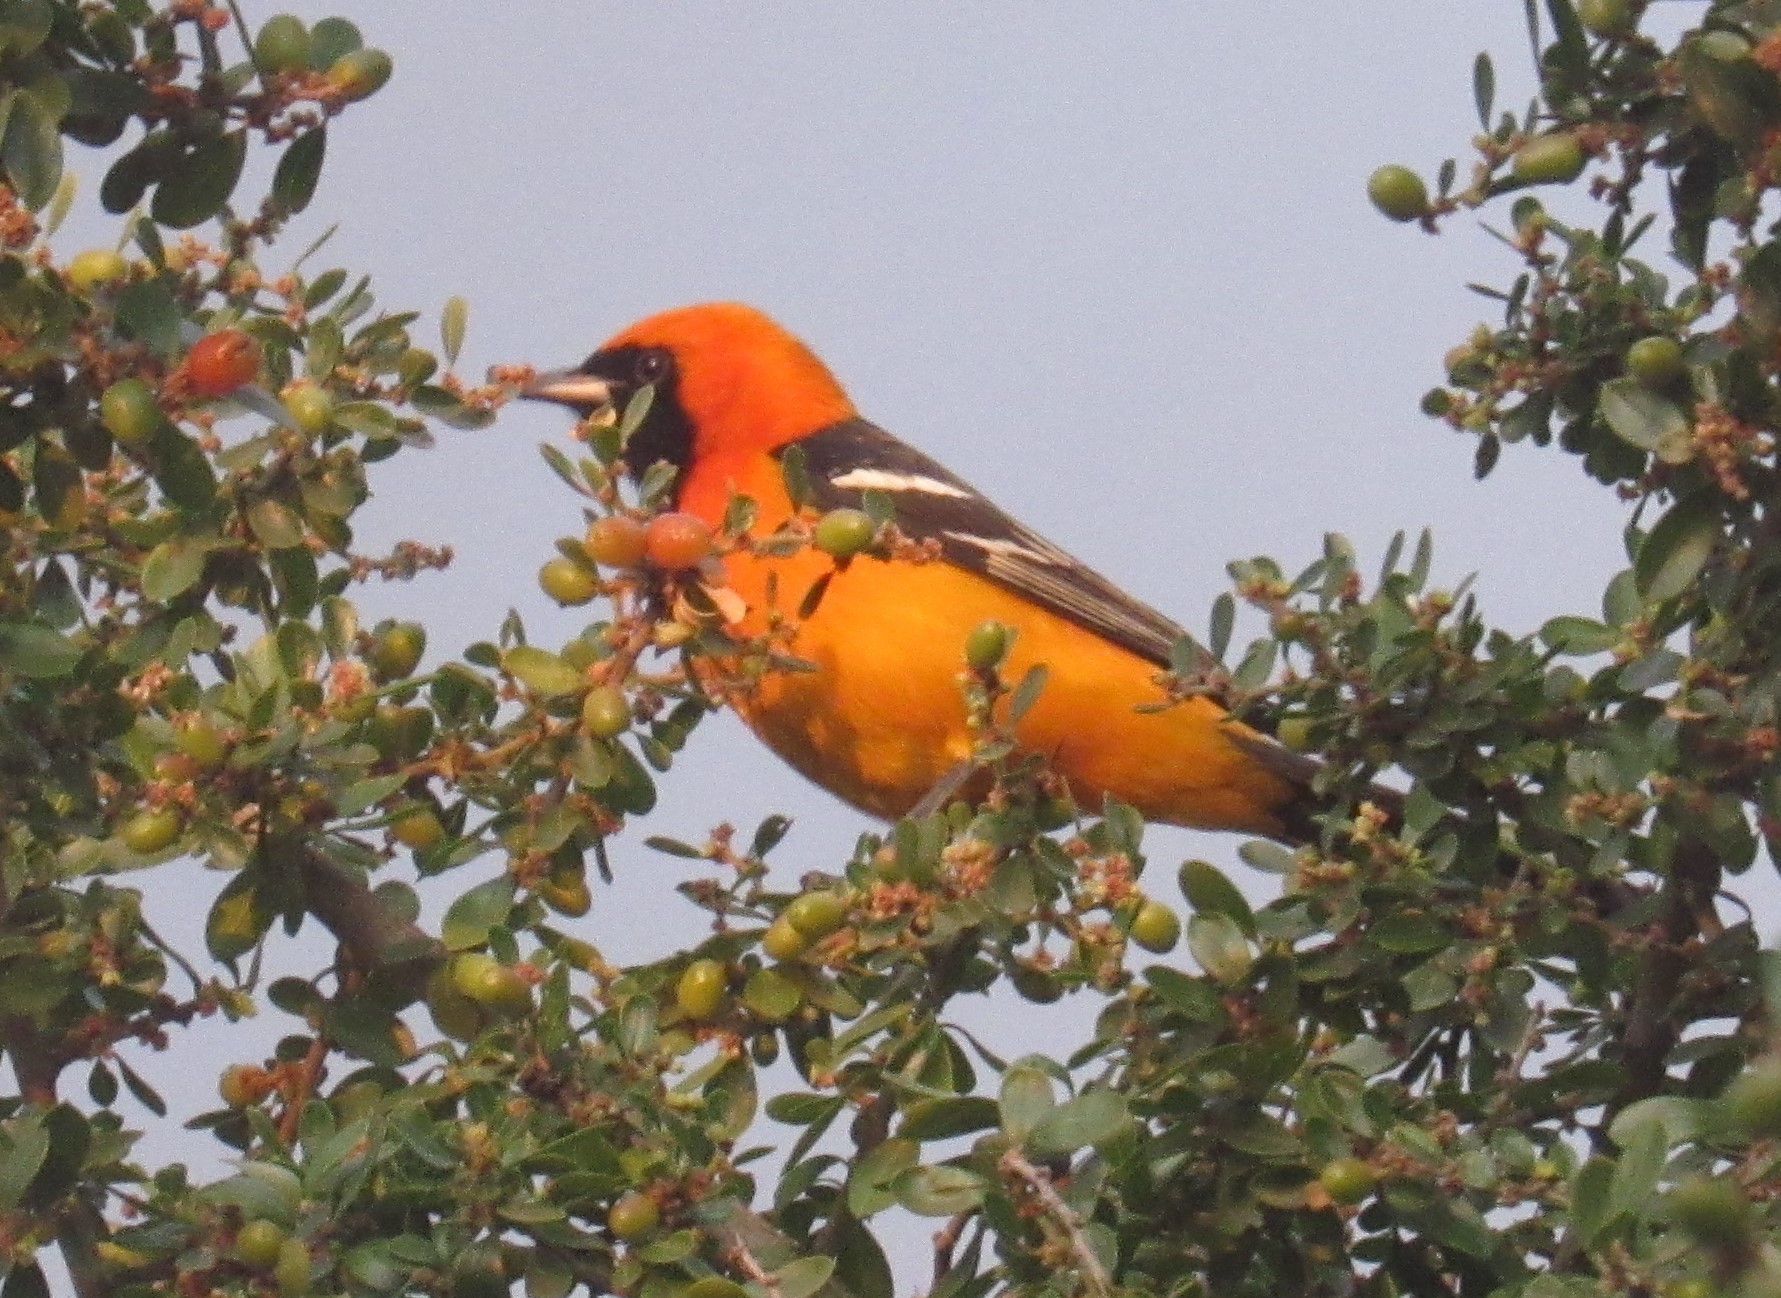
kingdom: Animalia
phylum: Chordata
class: Aves
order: Passeriformes
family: Icteridae
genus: Icterus
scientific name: Icterus cucullatus
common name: Hooded oriole
